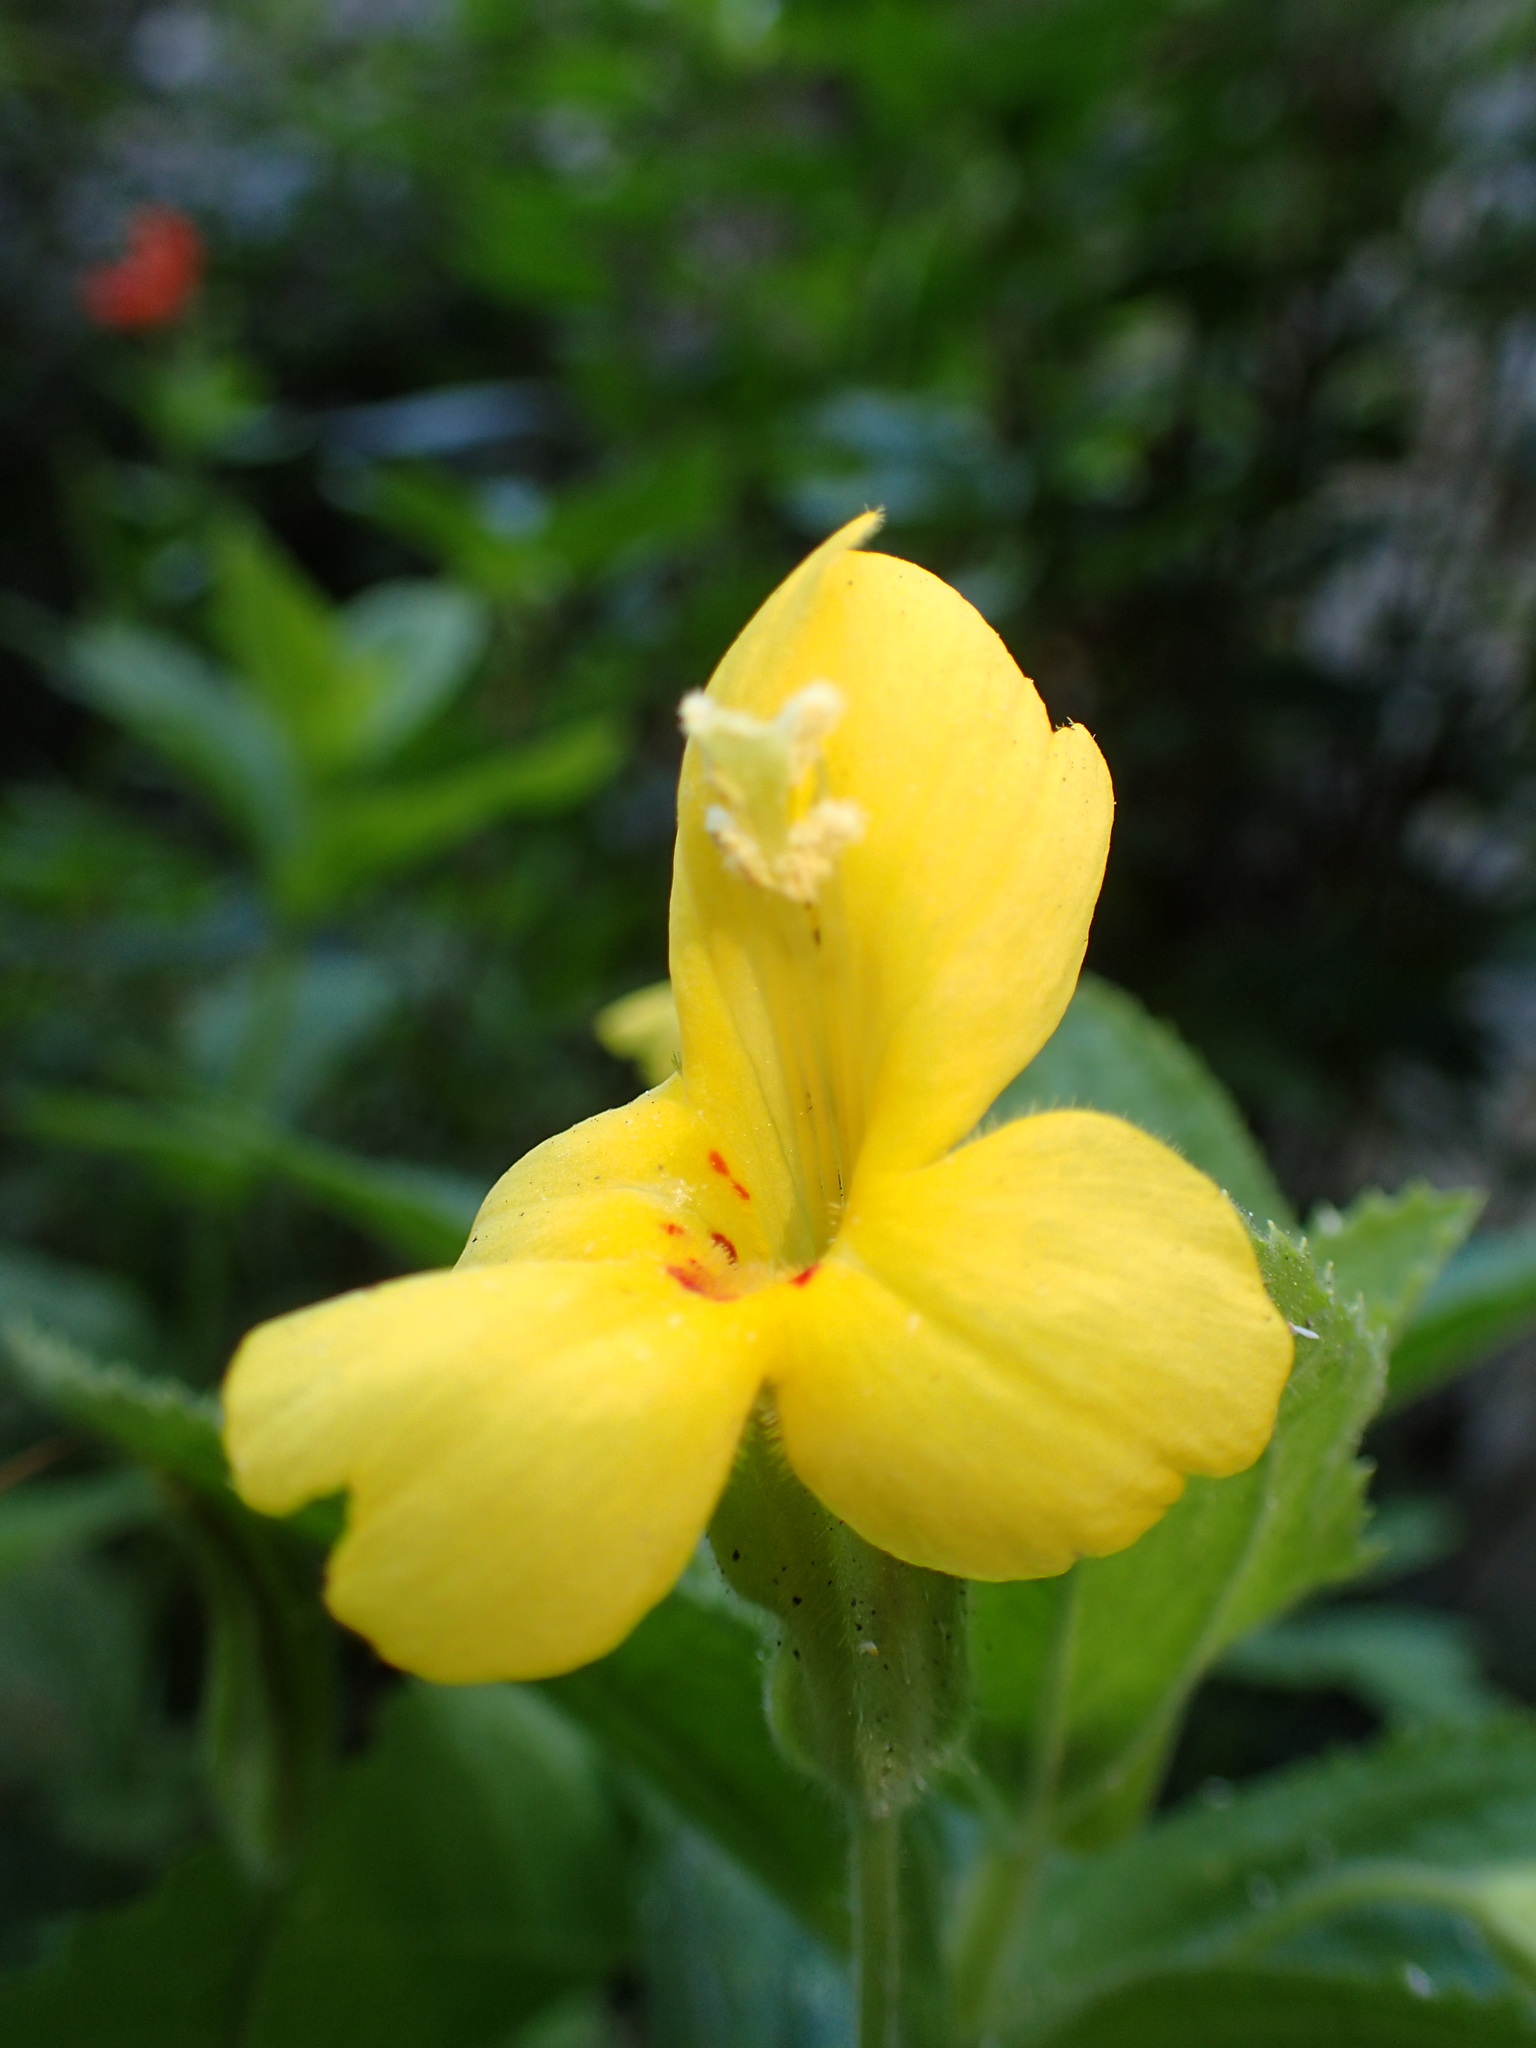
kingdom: Plantae
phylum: Tracheophyta
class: Magnoliopsida
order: Lamiales
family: Phrymaceae
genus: Erythranthe
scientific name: Erythranthe cardinalis
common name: Scarlet monkey-flower
